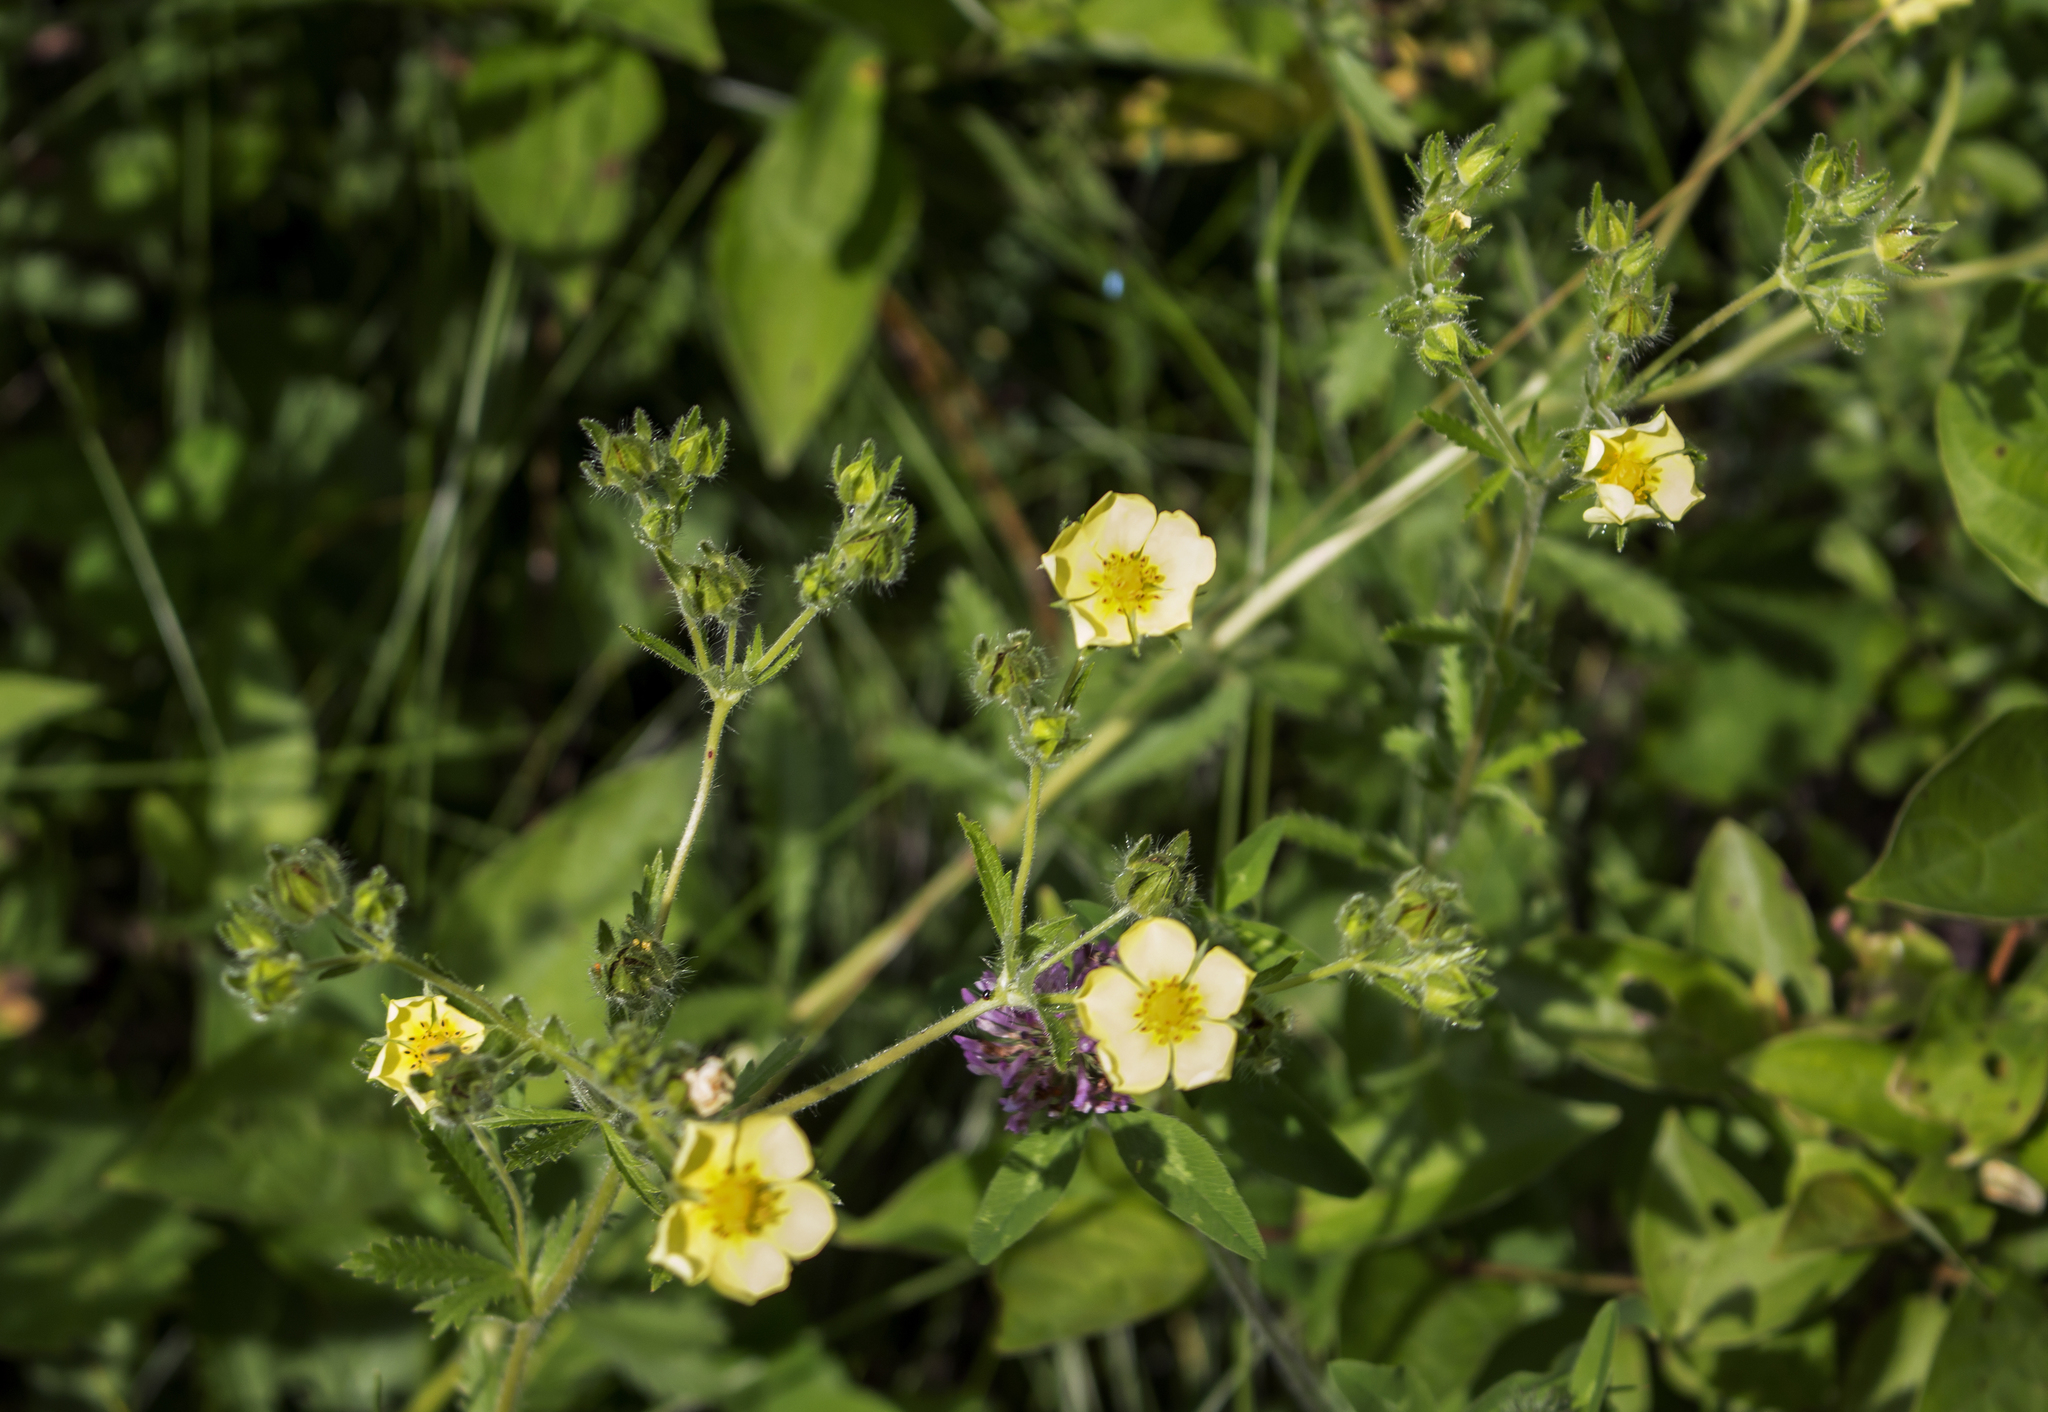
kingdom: Plantae
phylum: Tracheophyta
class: Magnoliopsida
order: Rosales
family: Rosaceae
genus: Potentilla
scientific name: Potentilla recta
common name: Sulphur cinquefoil
